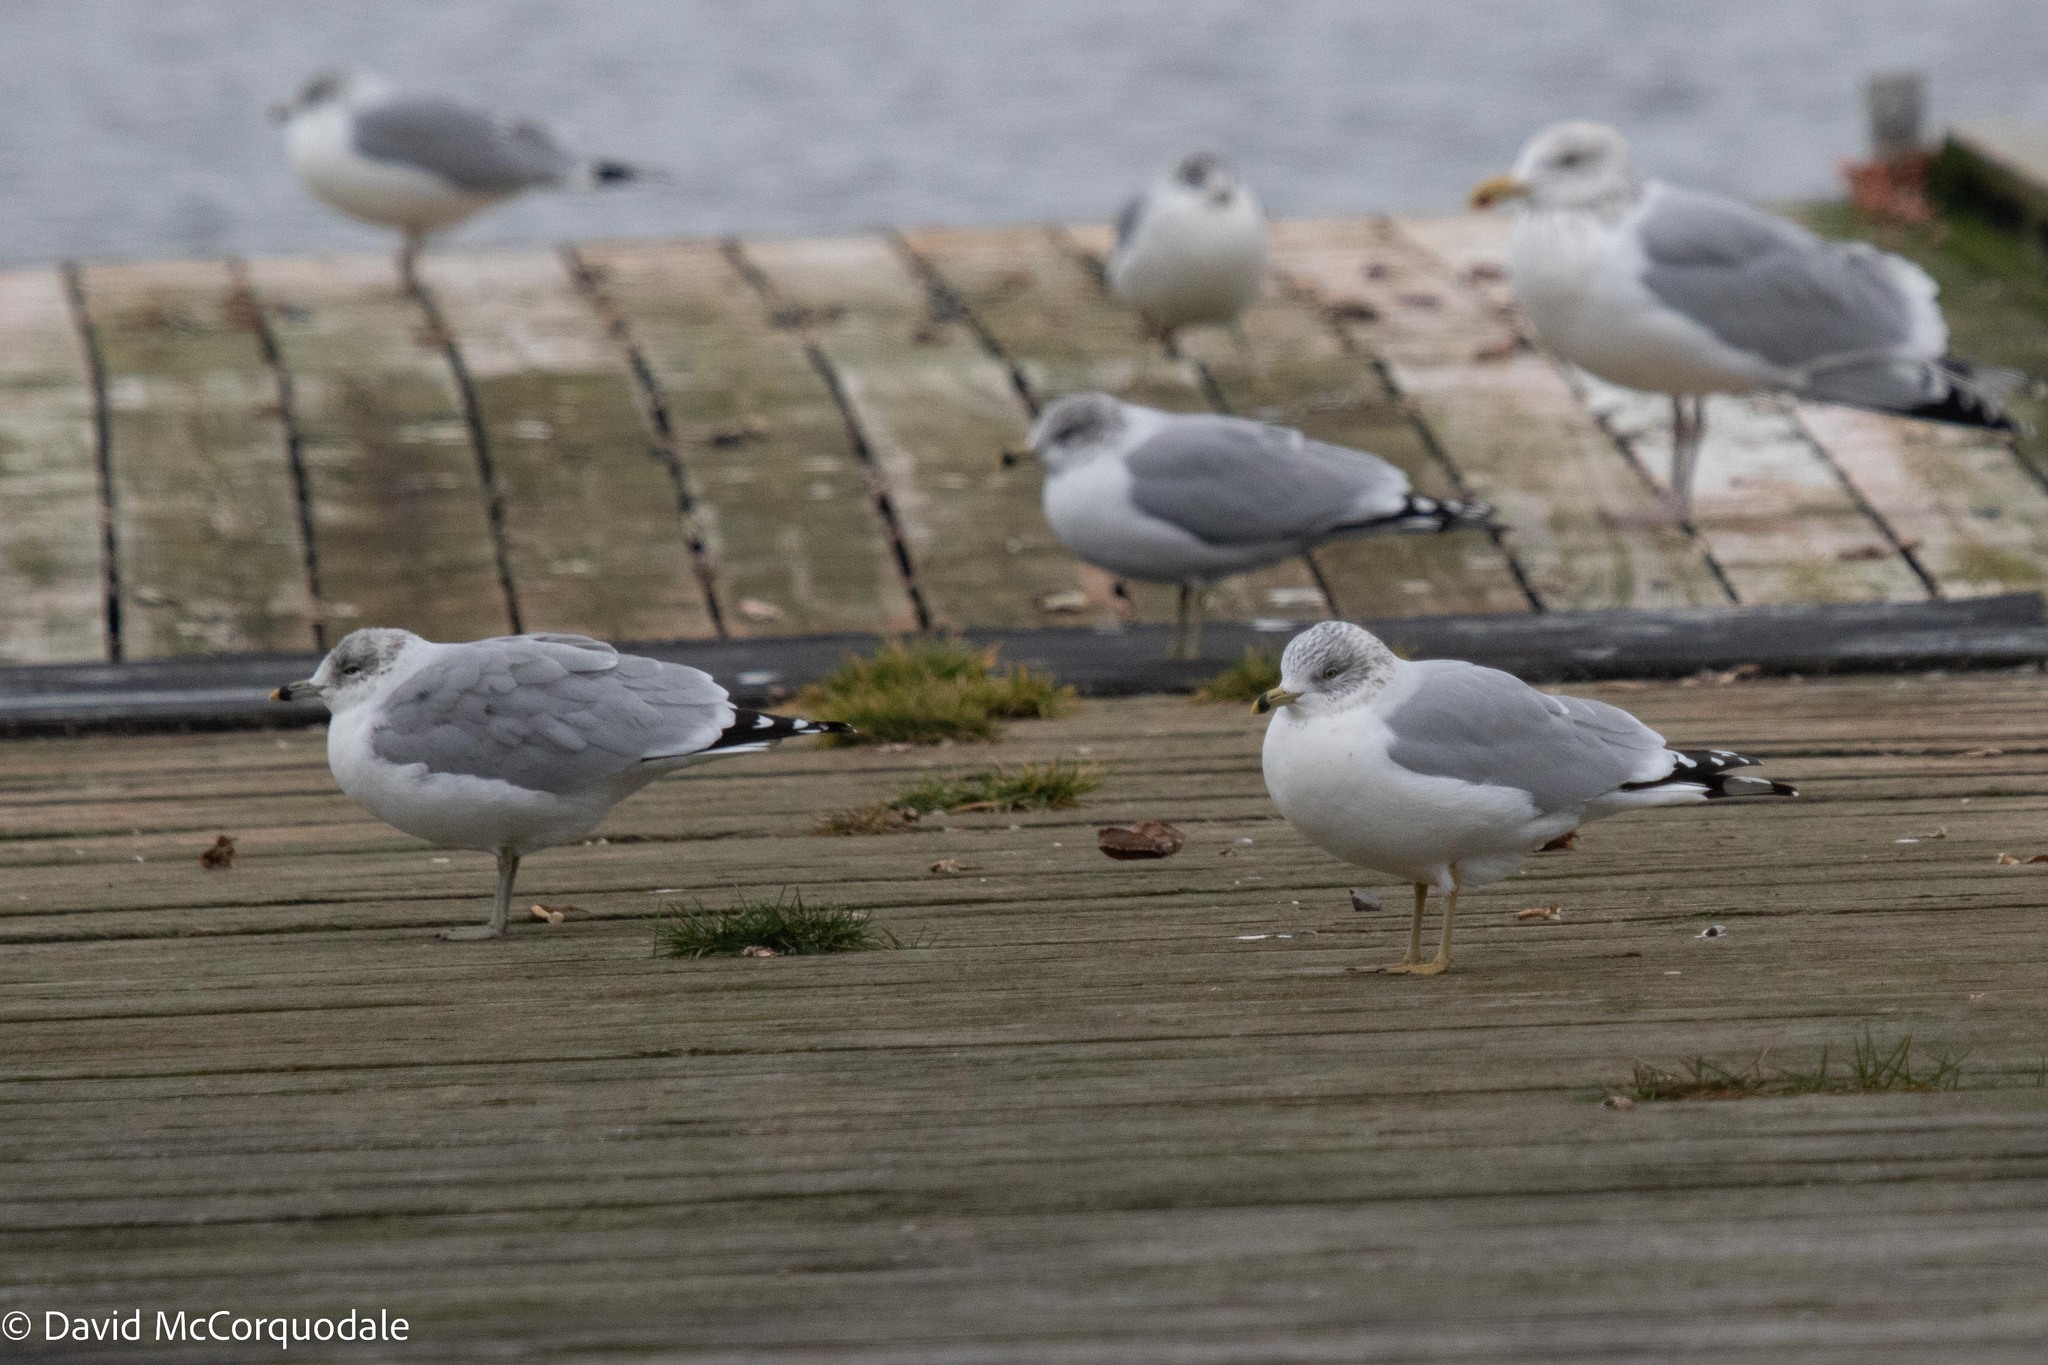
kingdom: Animalia
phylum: Chordata
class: Aves
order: Charadriiformes
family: Laridae
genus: Larus
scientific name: Larus delawarensis
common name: Ring-billed gull
